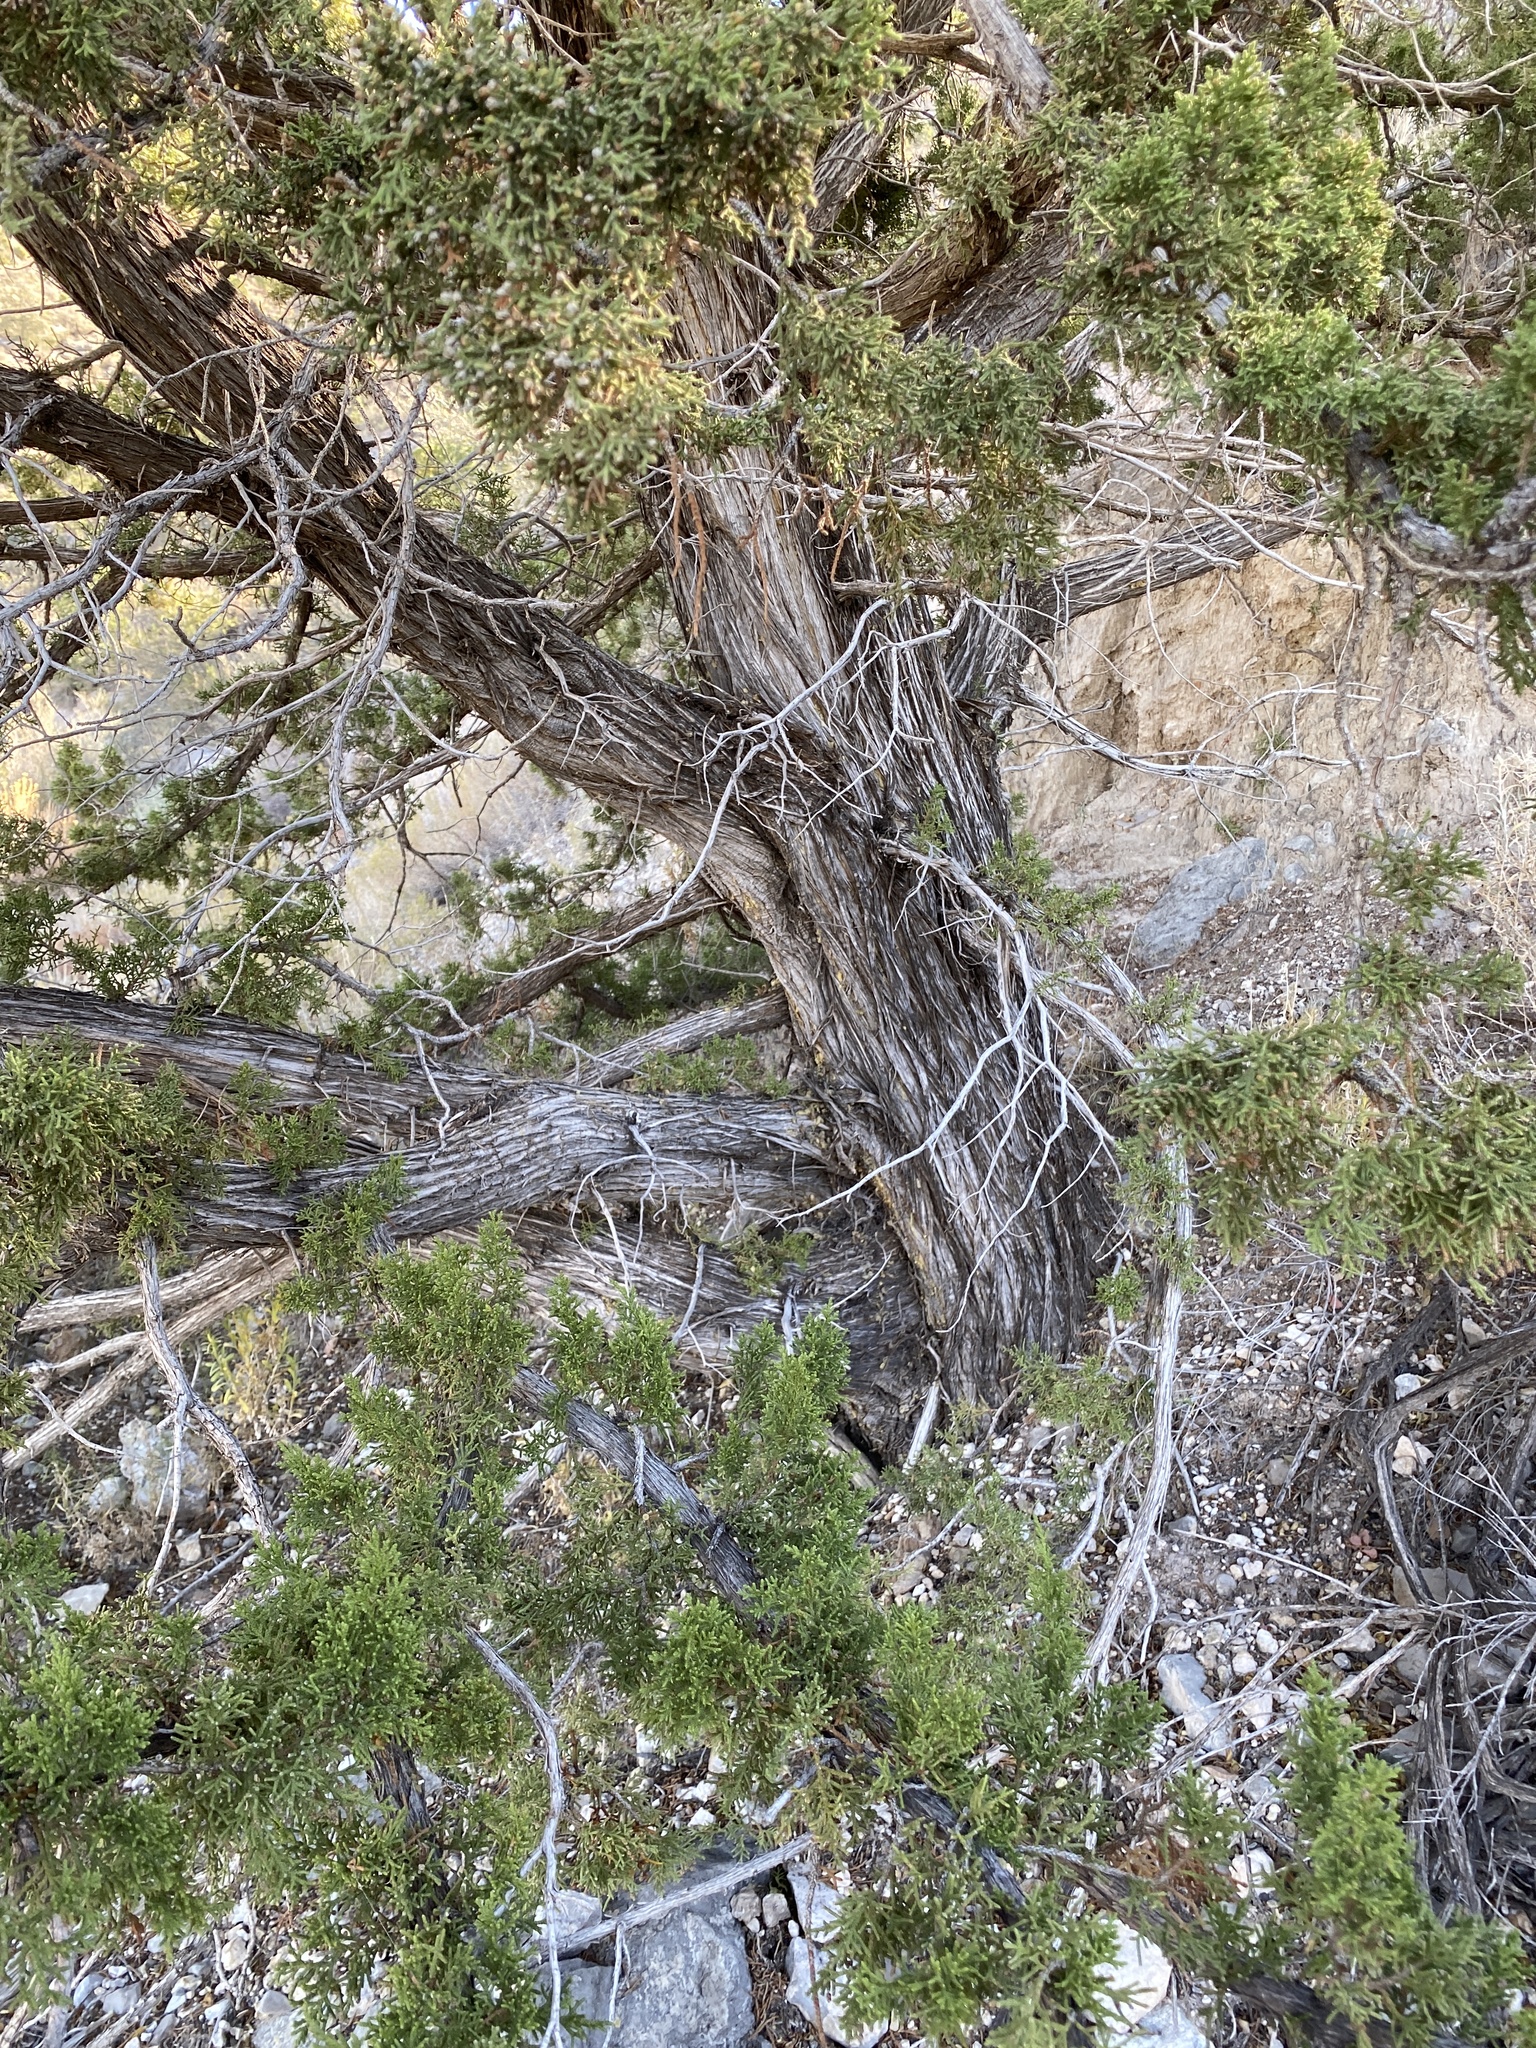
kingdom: Plantae
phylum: Tracheophyta
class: Pinopsida
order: Pinales
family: Cupressaceae
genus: Juniperus
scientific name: Juniperus monosperma
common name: One-seed juniper
